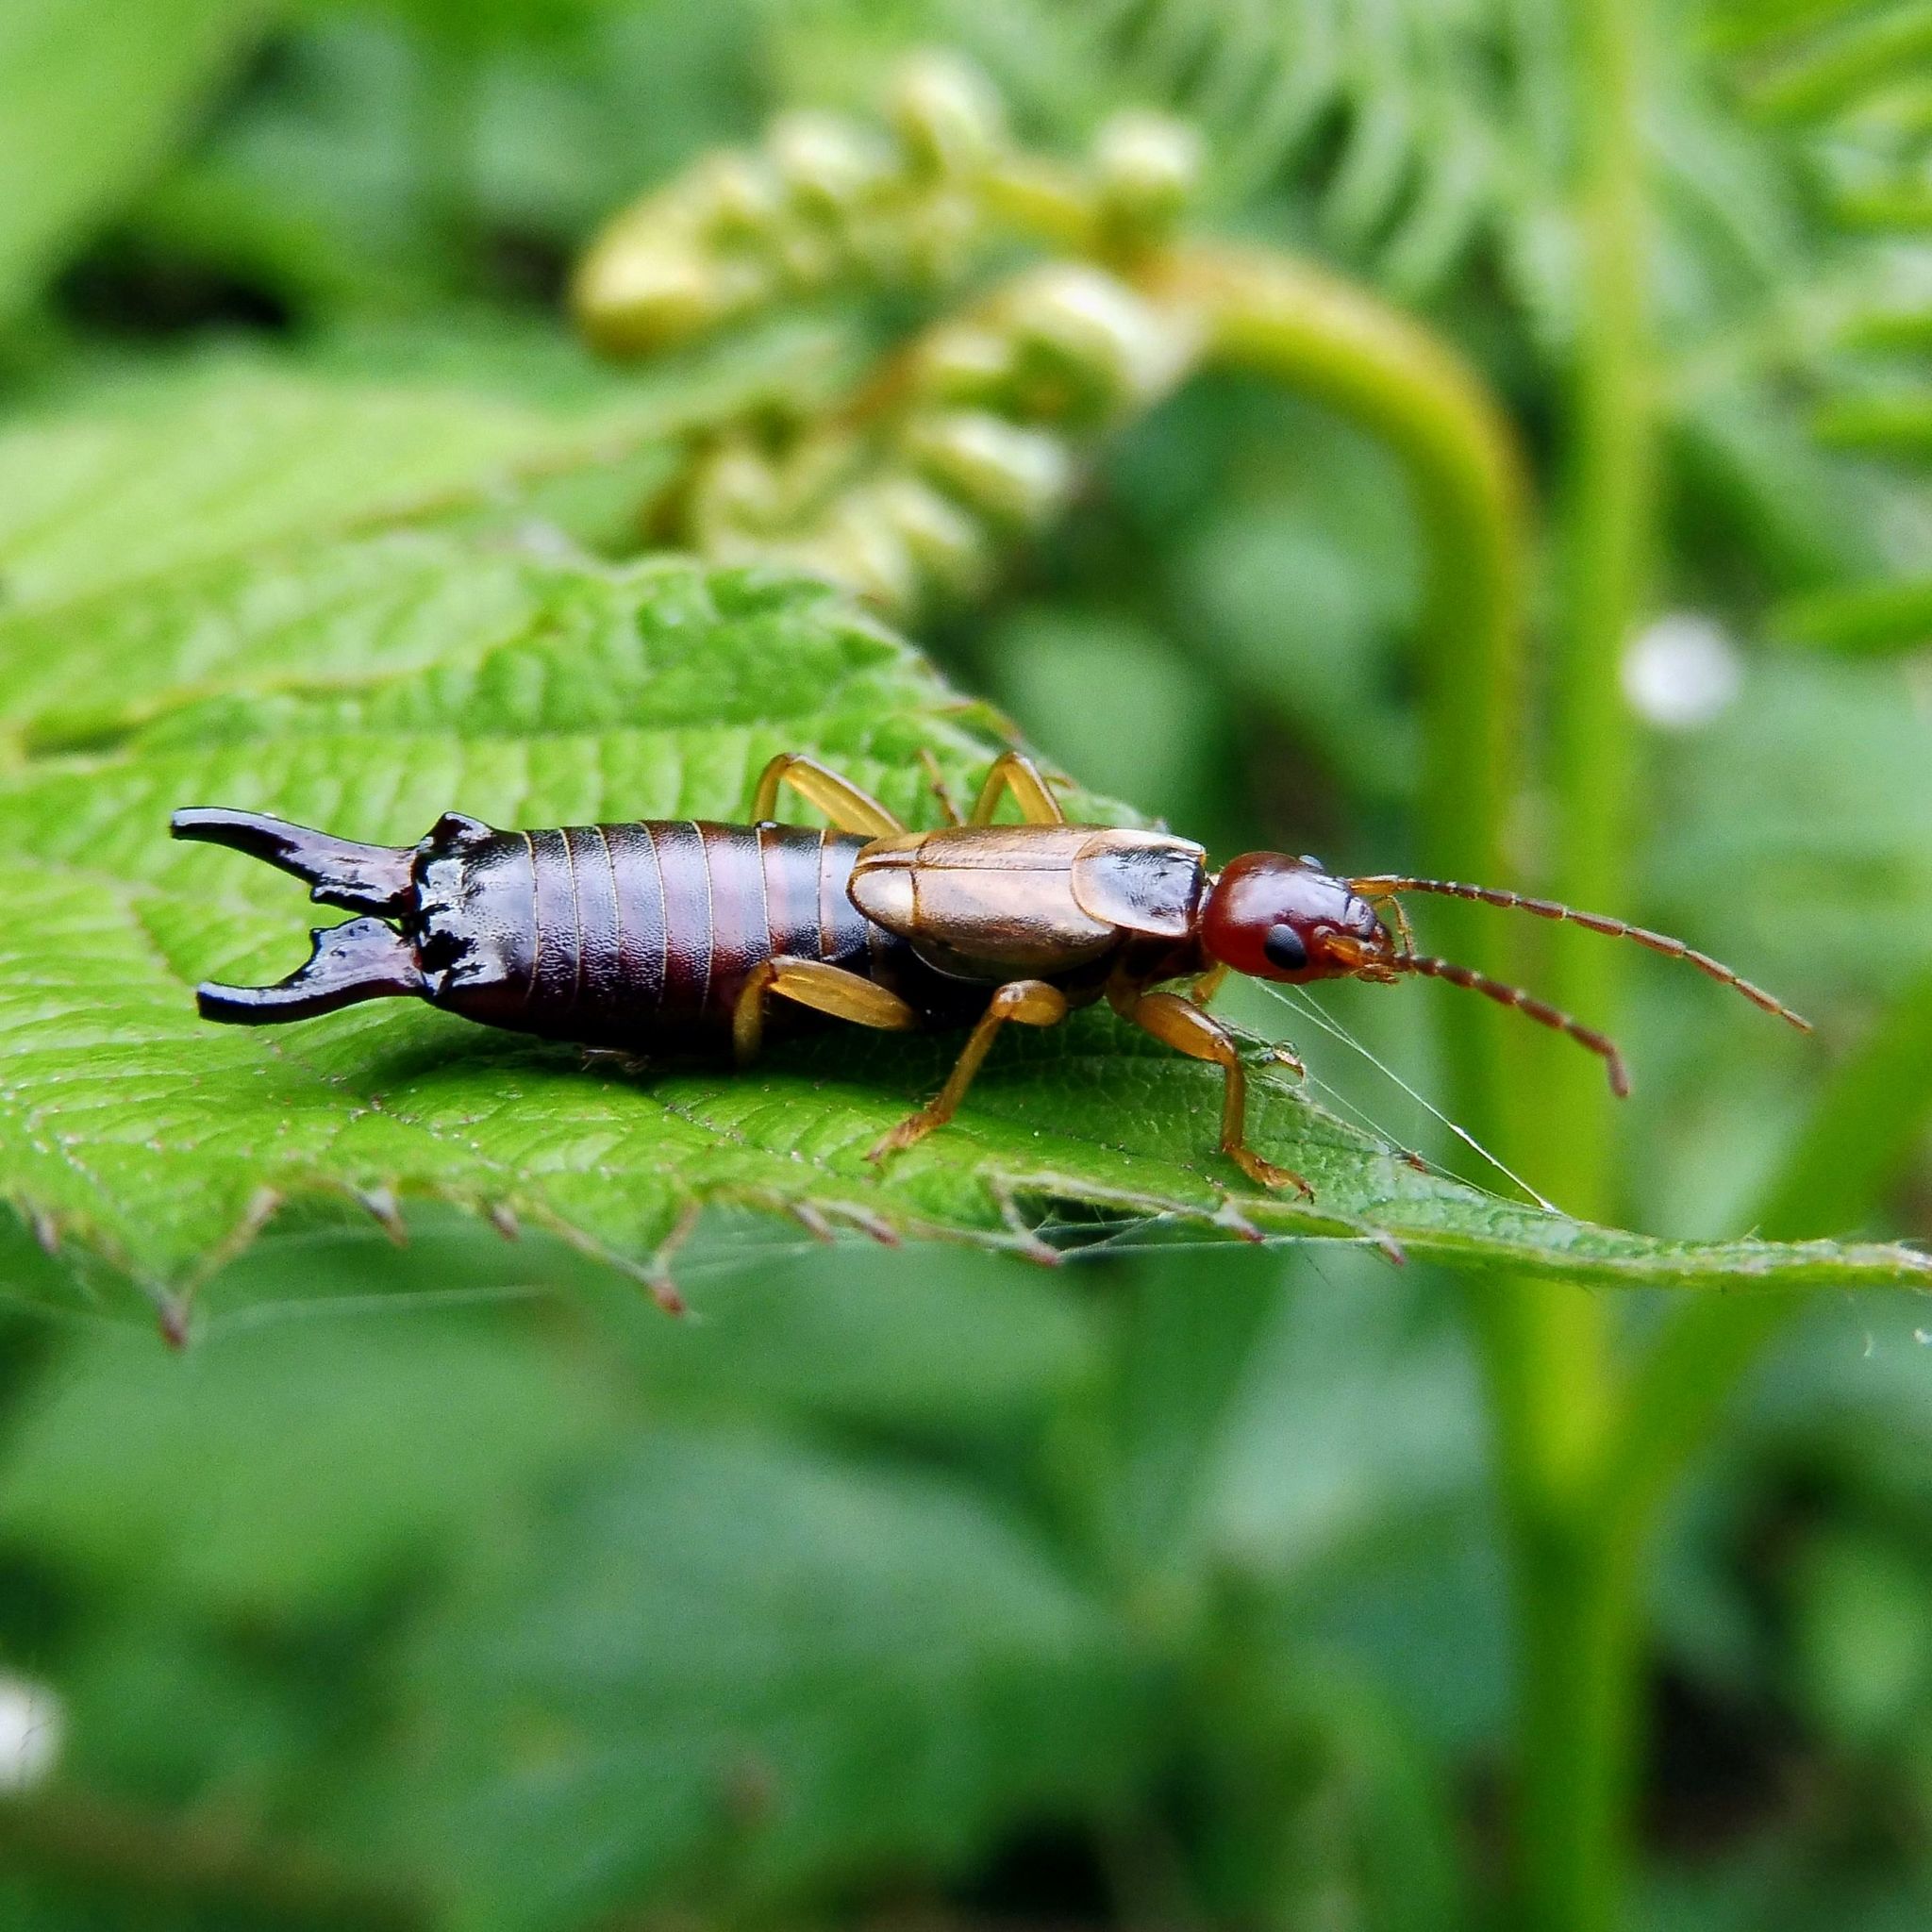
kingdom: Animalia
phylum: Arthropoda
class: Insecta
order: Dermaptera
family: Forficulidae
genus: Forficula
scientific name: Forficula
